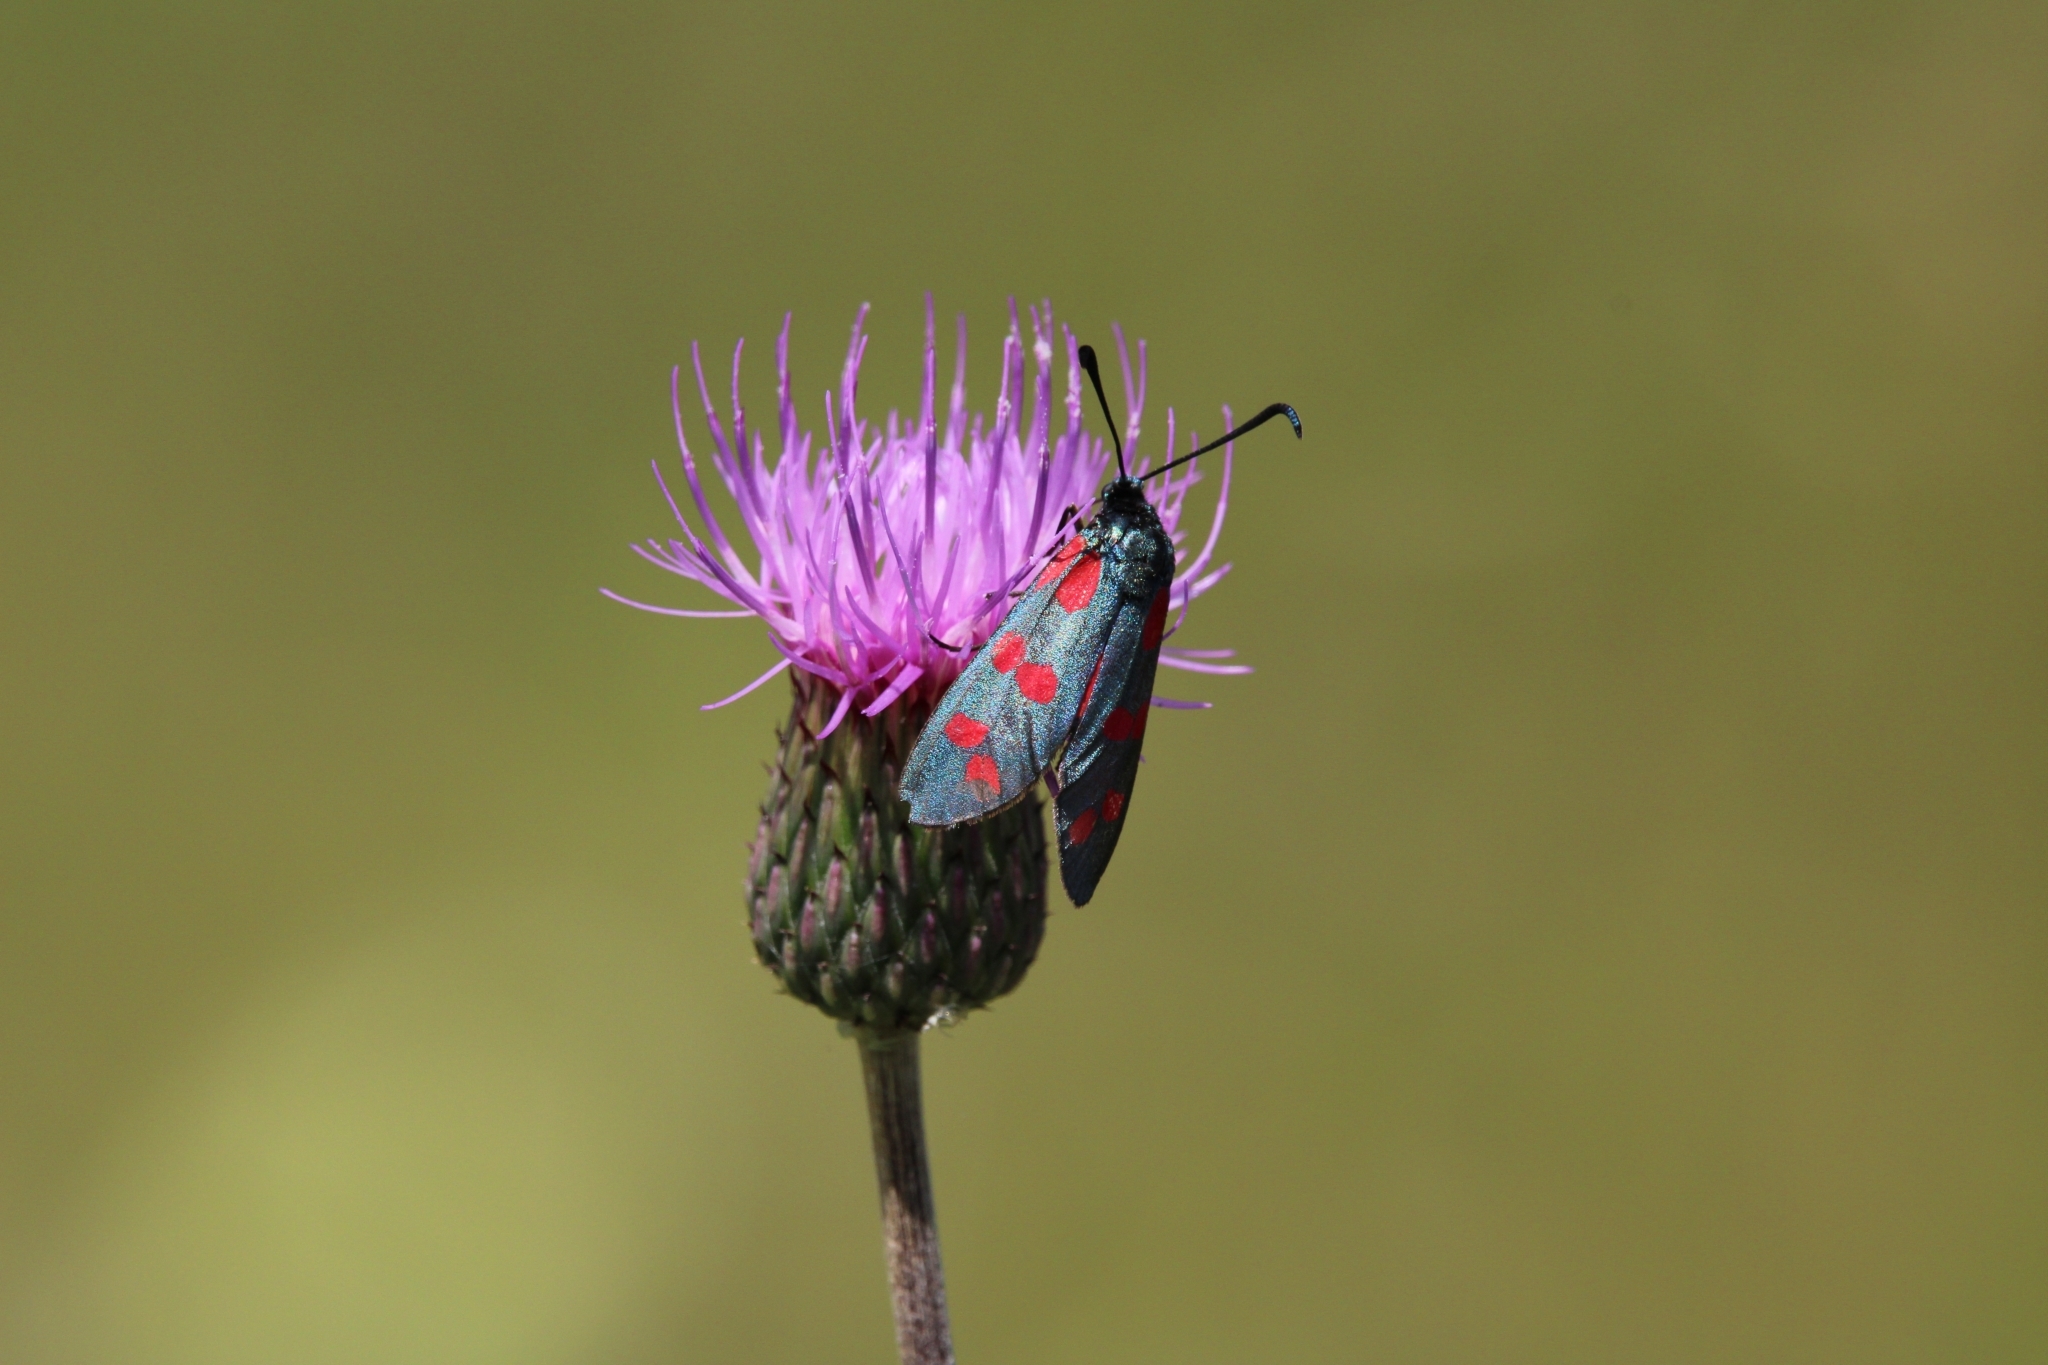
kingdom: Animalia
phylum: Arthropoda
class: Insecta
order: Lepidoptera
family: Zygaenidae
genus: Zygaena
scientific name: Zygaena filipendulae
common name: Six-spot burnet
